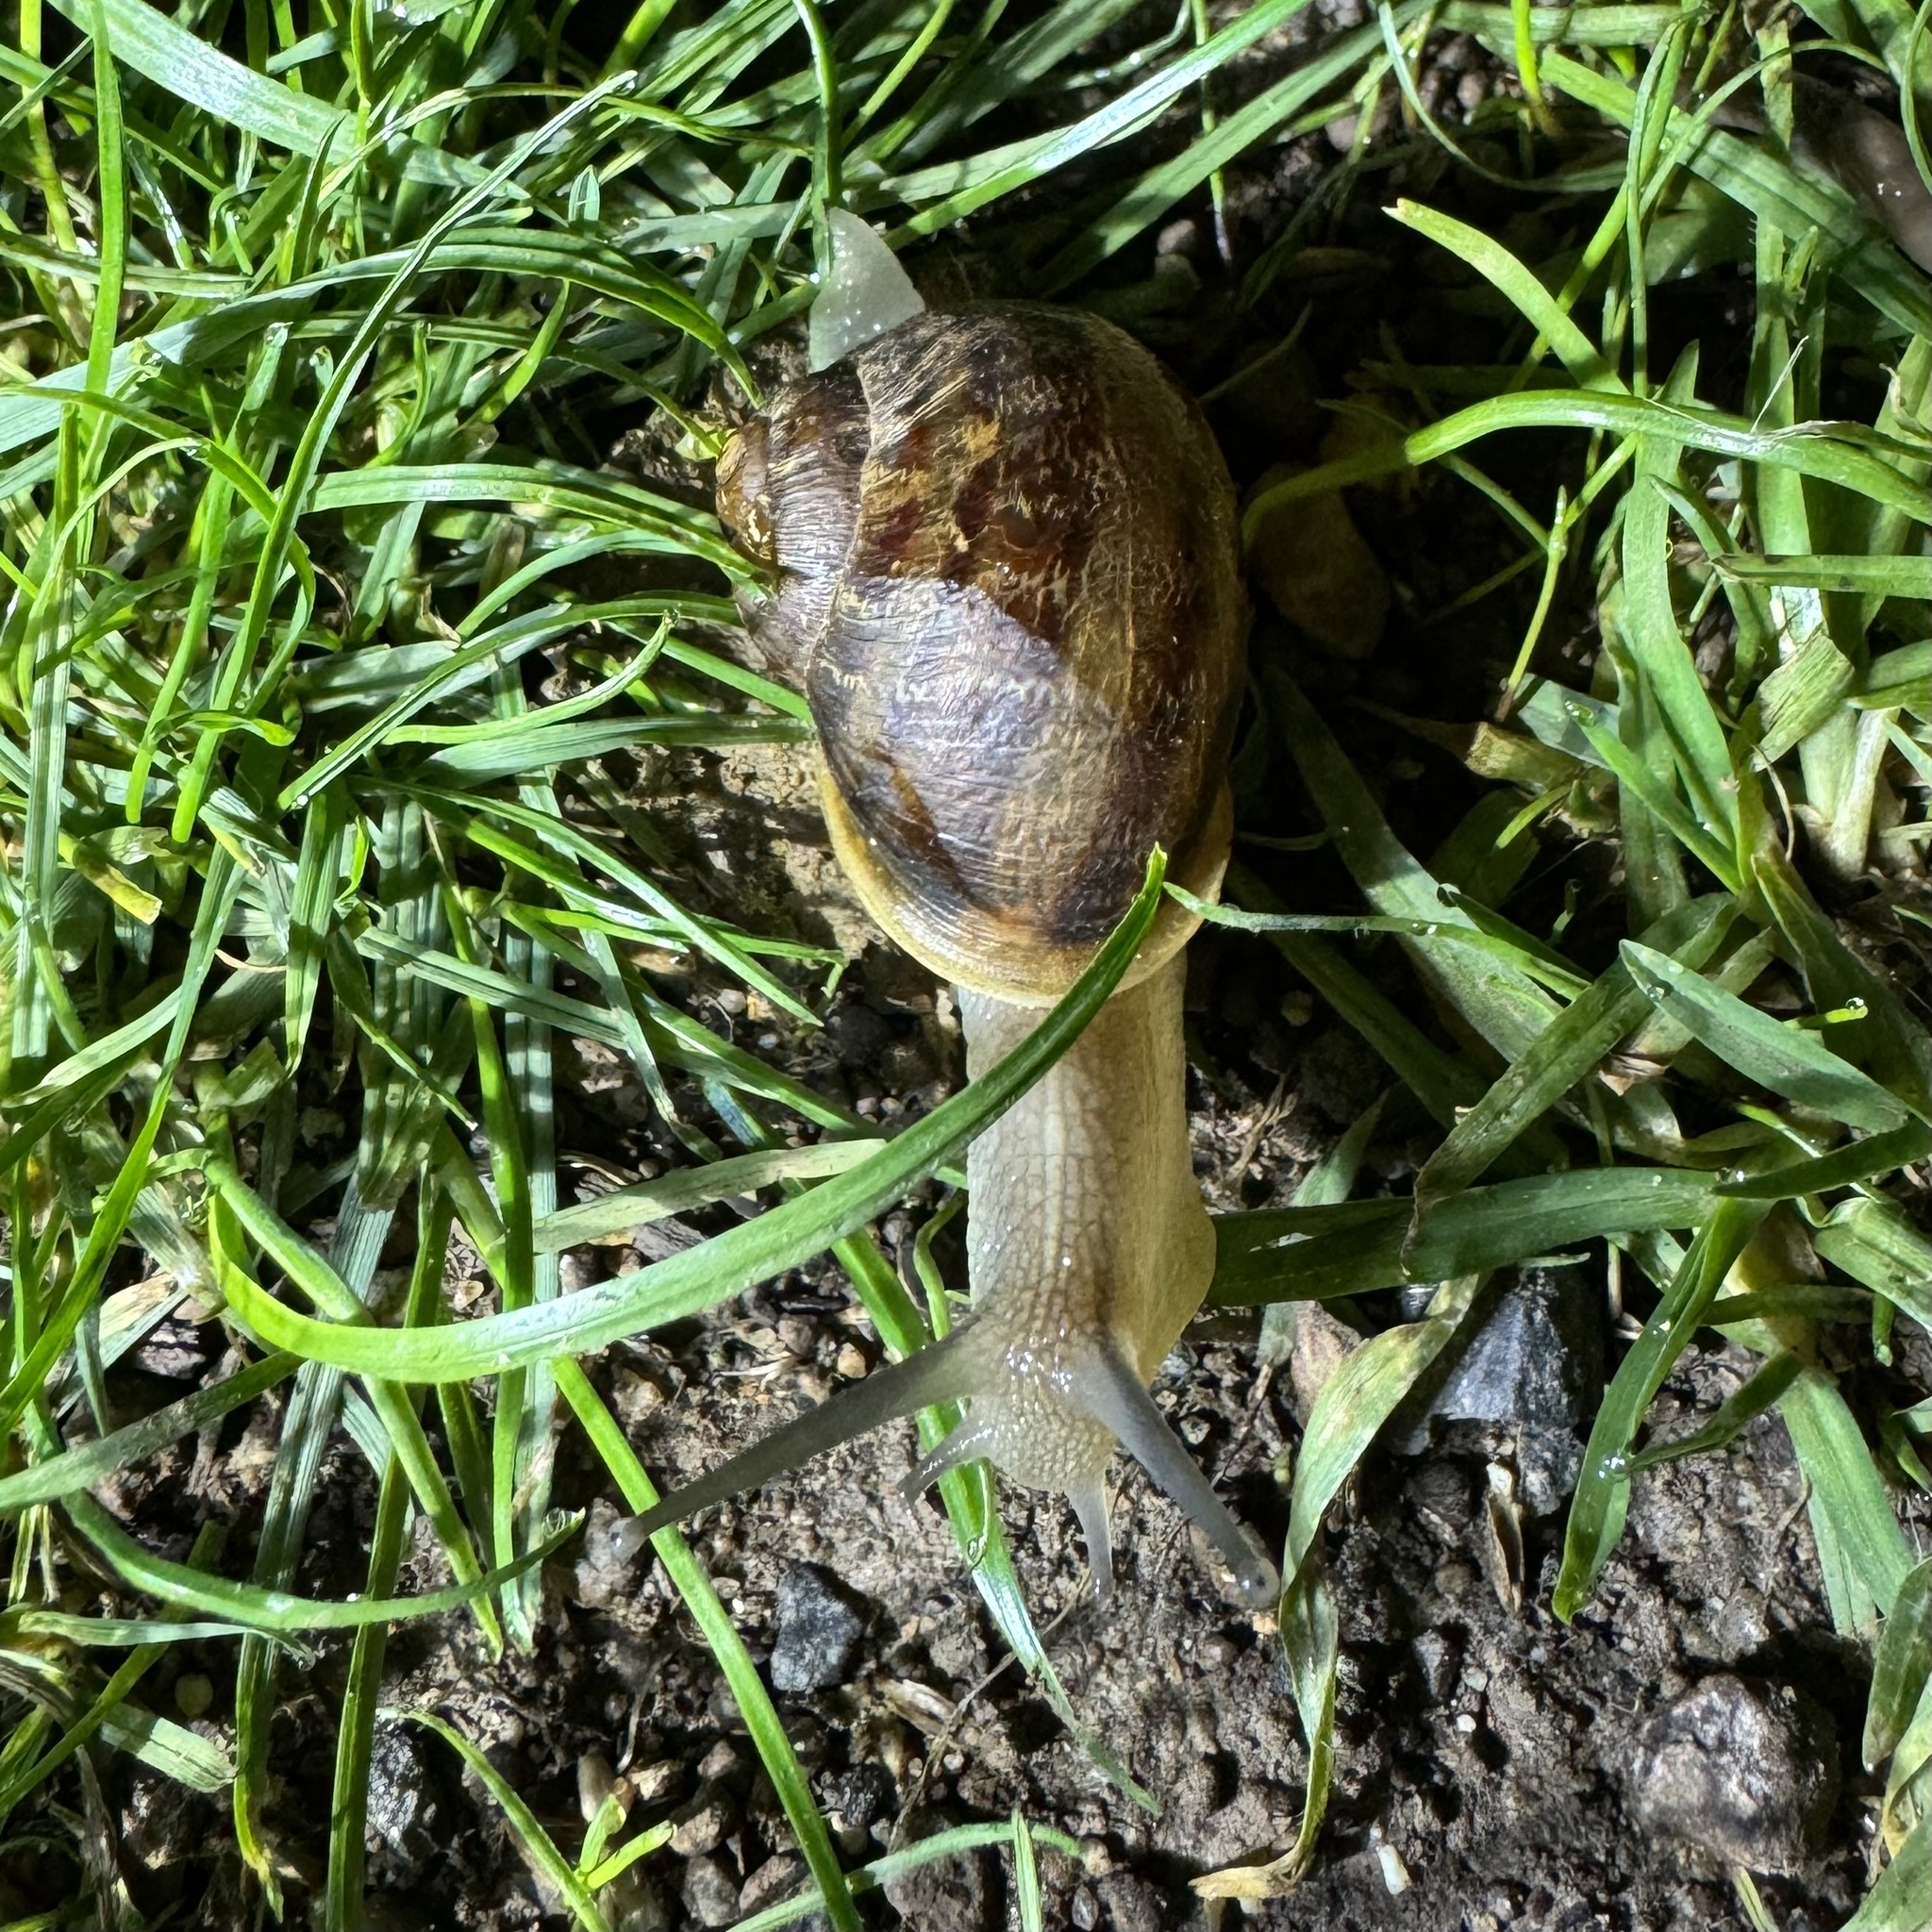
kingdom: Animalia
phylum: Mollusca
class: Gastropoda
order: Stylommatophora
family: Helicidae
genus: Cornu
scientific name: Cornu aspersum
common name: Brown garden snail
